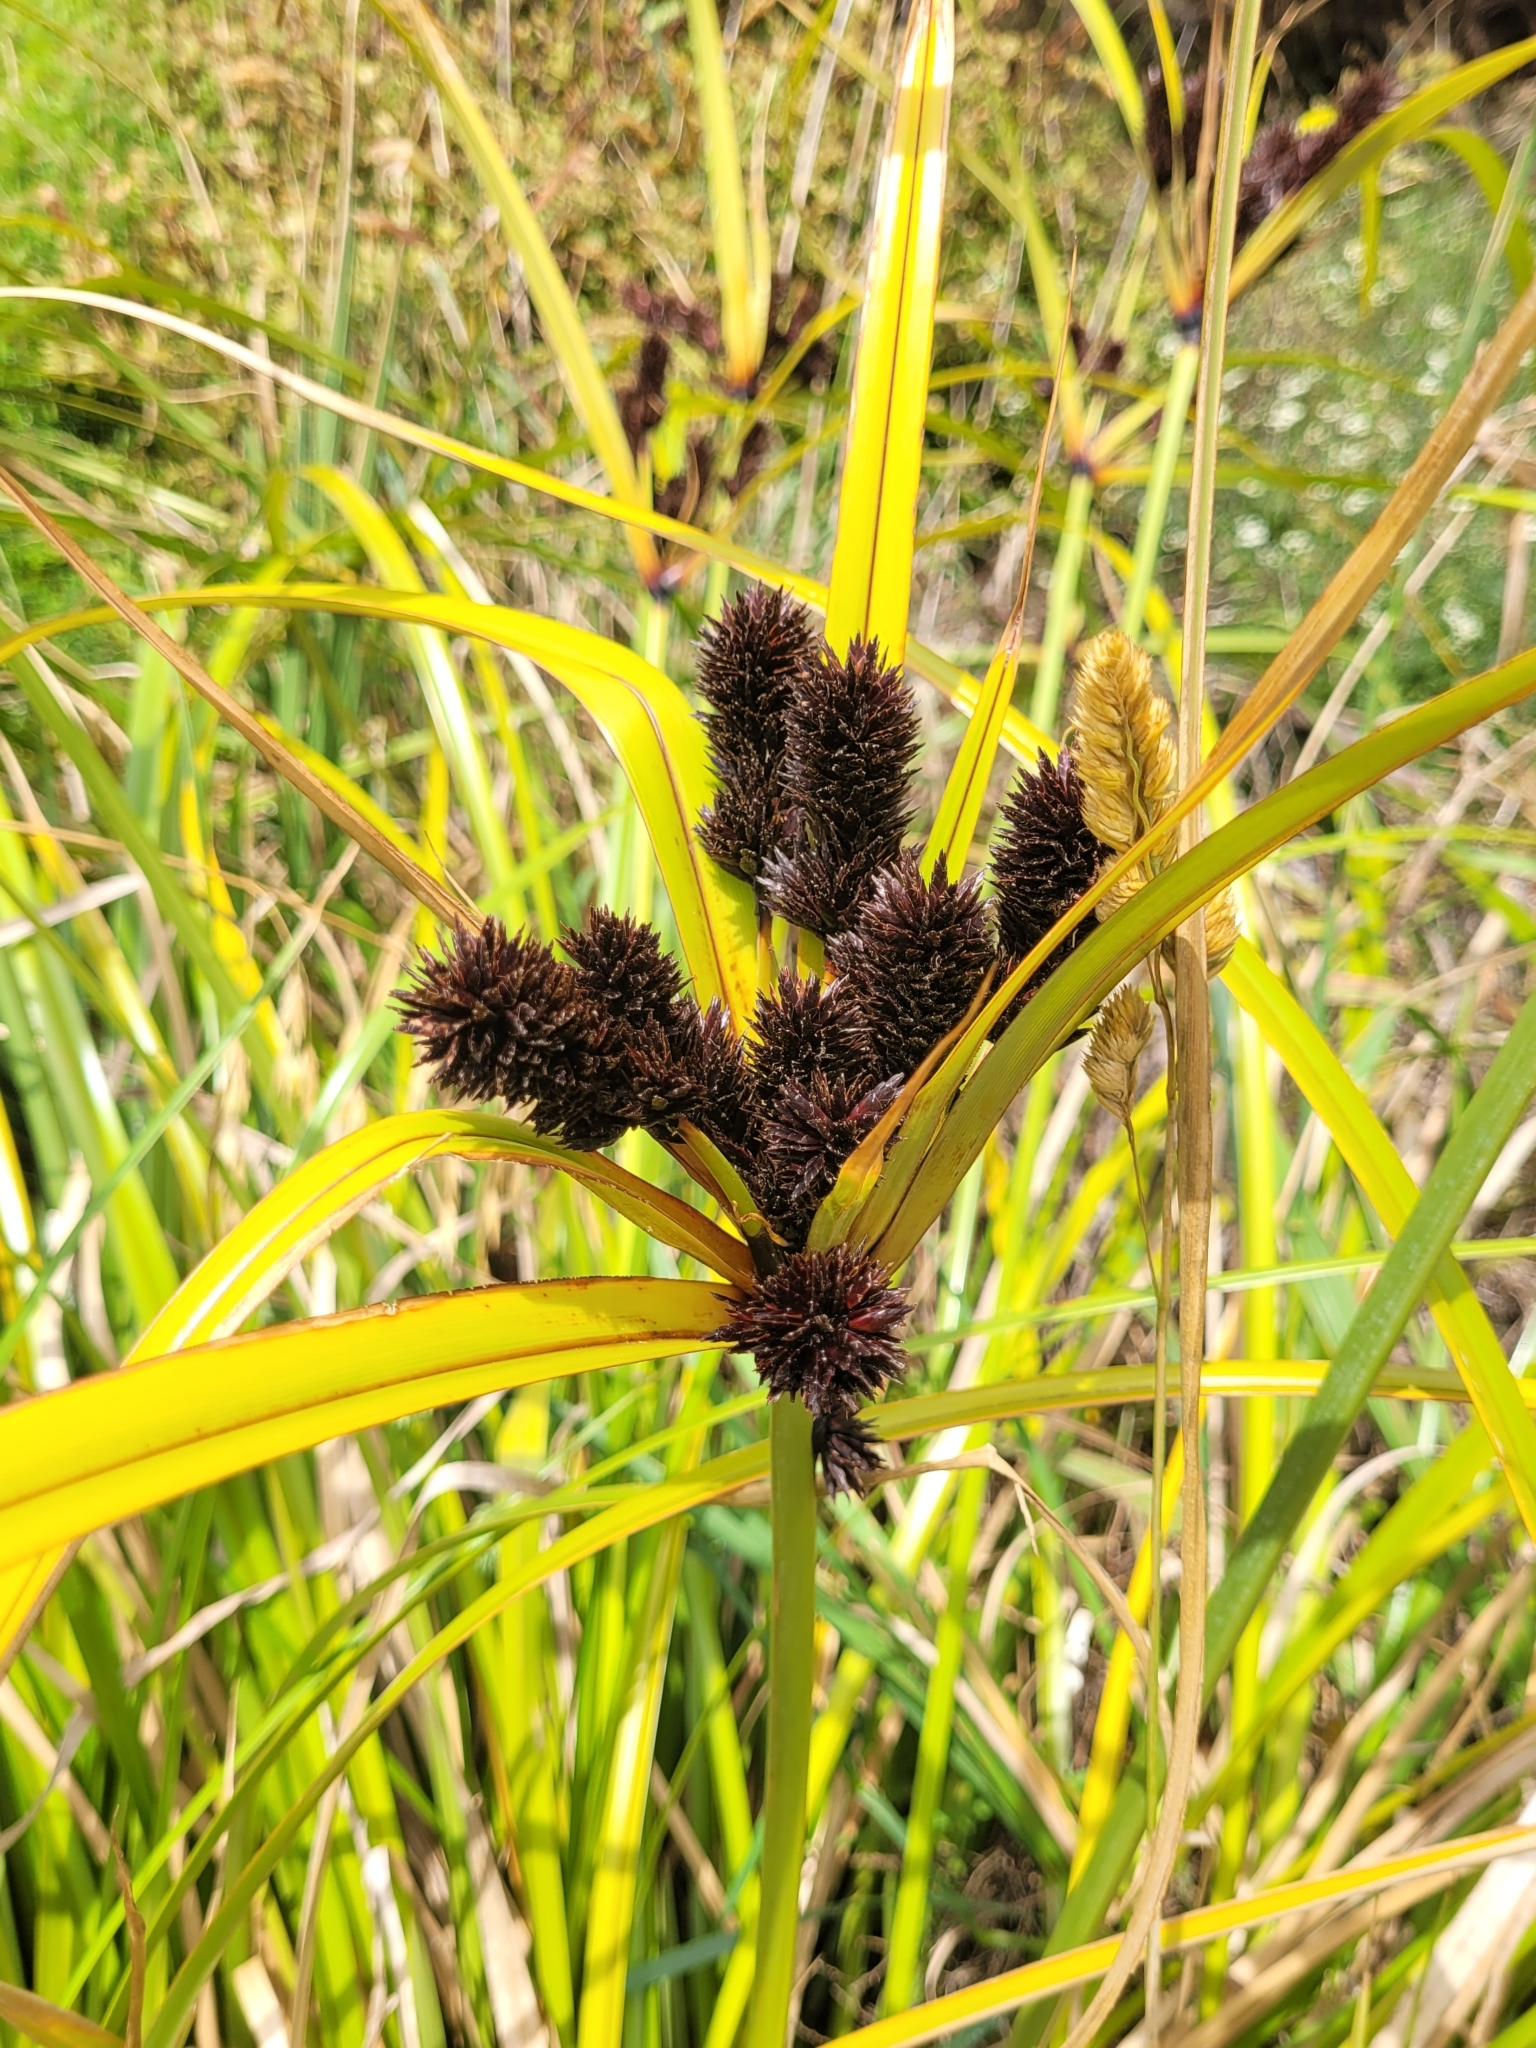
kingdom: Plantae
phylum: Tracheophyta
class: Liliopsida
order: Poales
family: Cyperaceae
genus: Cyperus
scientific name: Cyperus ustulatus
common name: Giant umbrella-sedge
